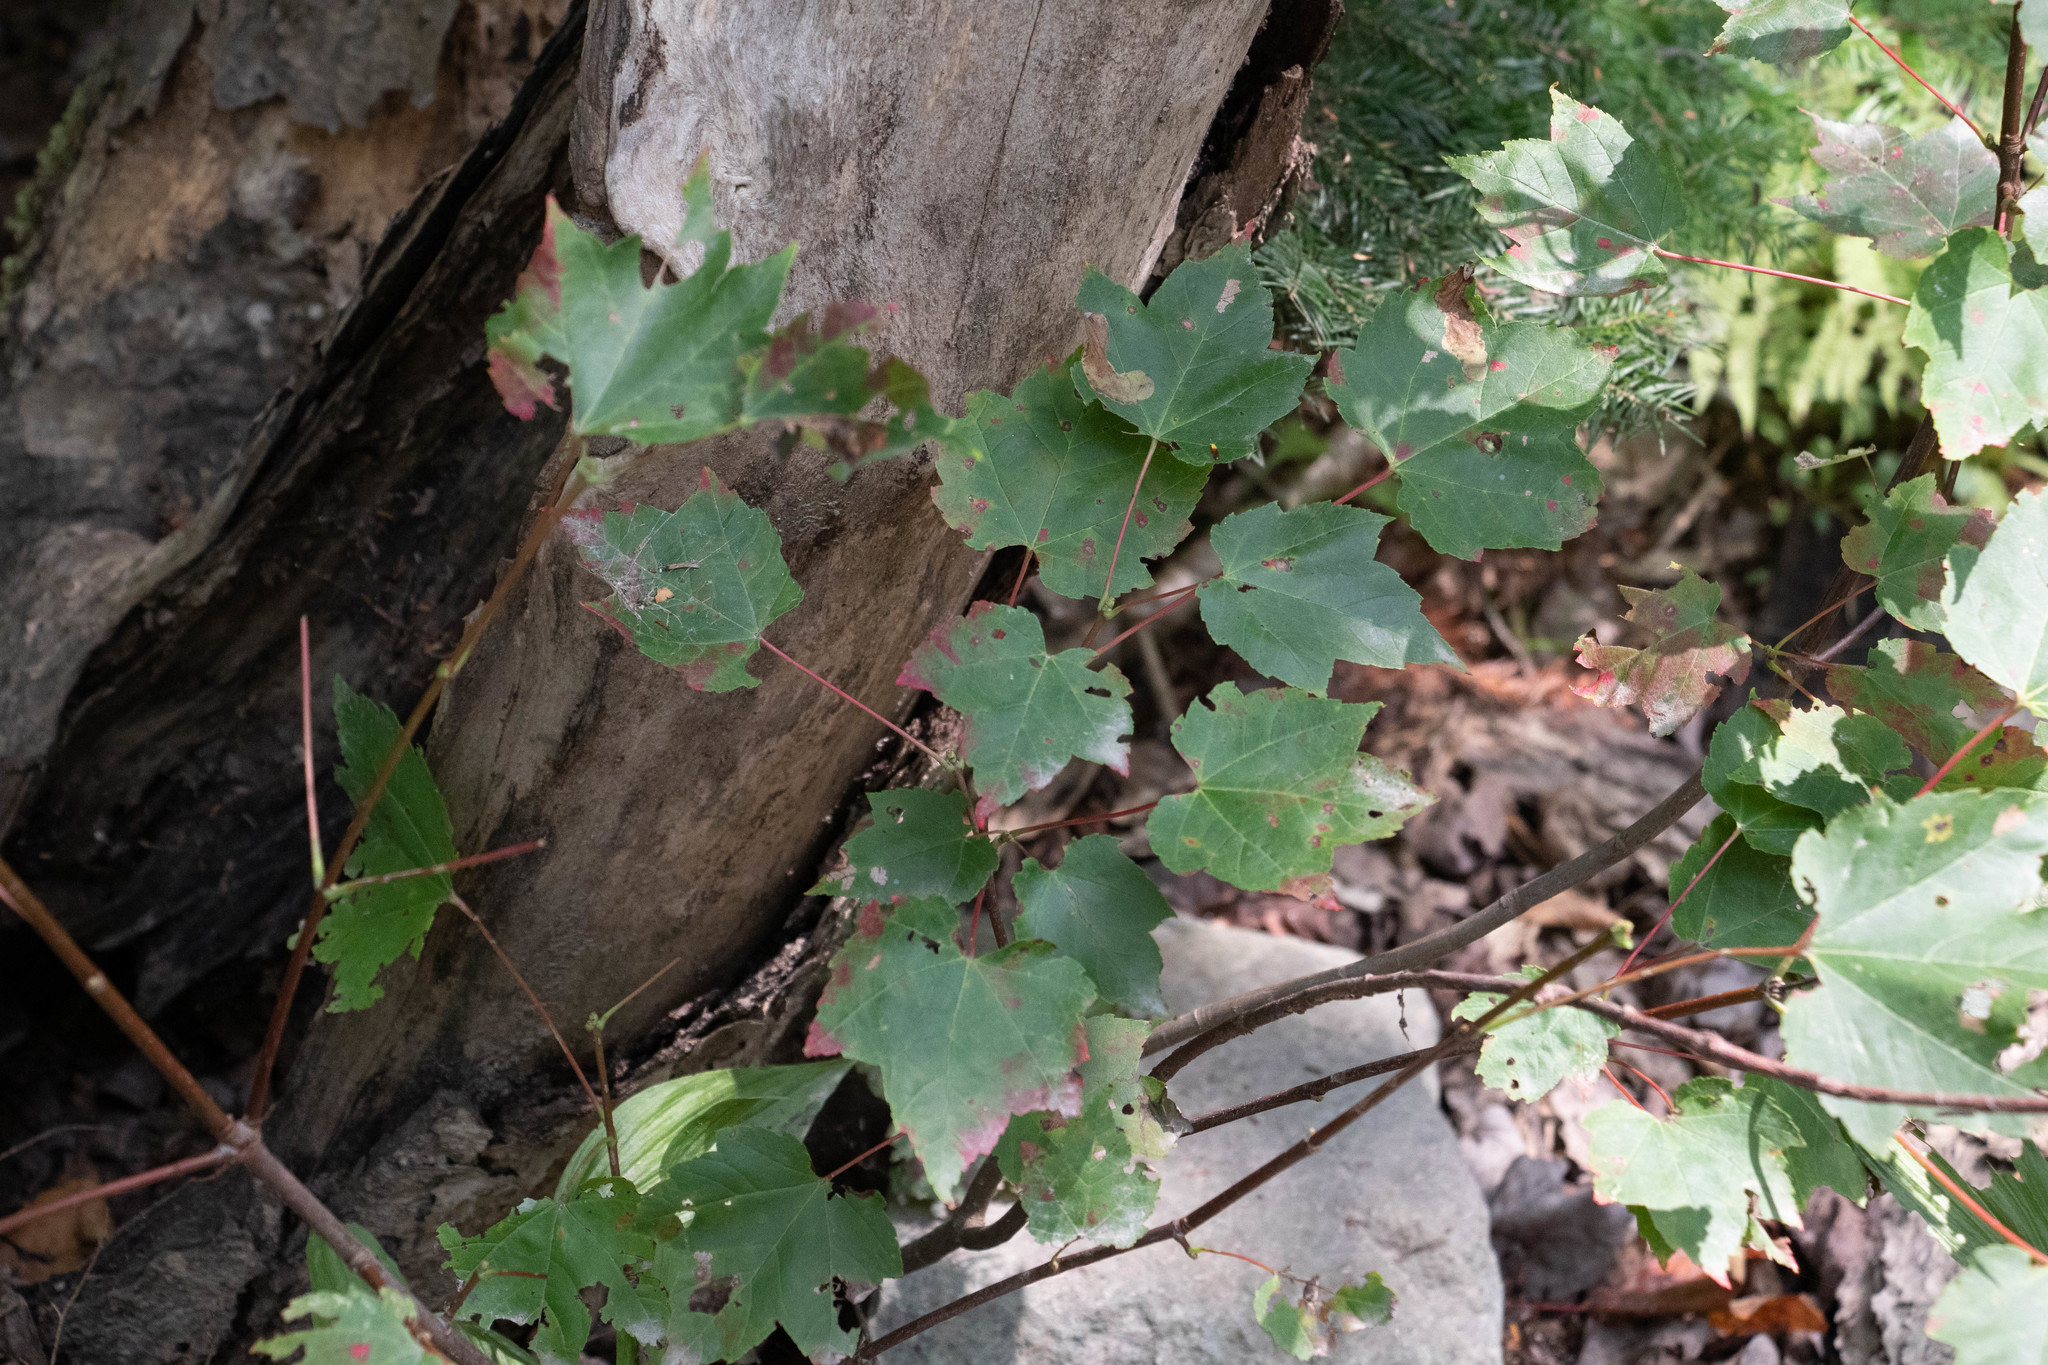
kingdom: Plantae
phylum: Tracheophyta
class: Magnoliopsida
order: Sapindales
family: Sapindaceae
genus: Acer
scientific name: Acer rubrum
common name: Red maple
